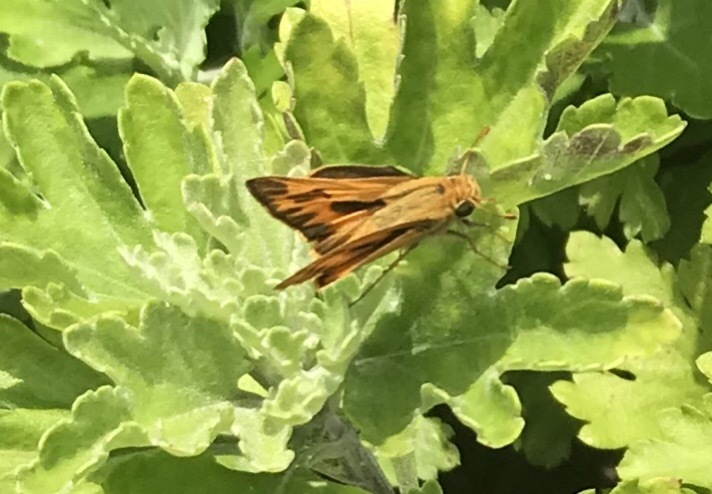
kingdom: Animalia
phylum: Arthropoda
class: Insecta
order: Lepidoptera
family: Hesperiidae
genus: Hylephila
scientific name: Hylephila phyleus
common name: Fiery skipper
